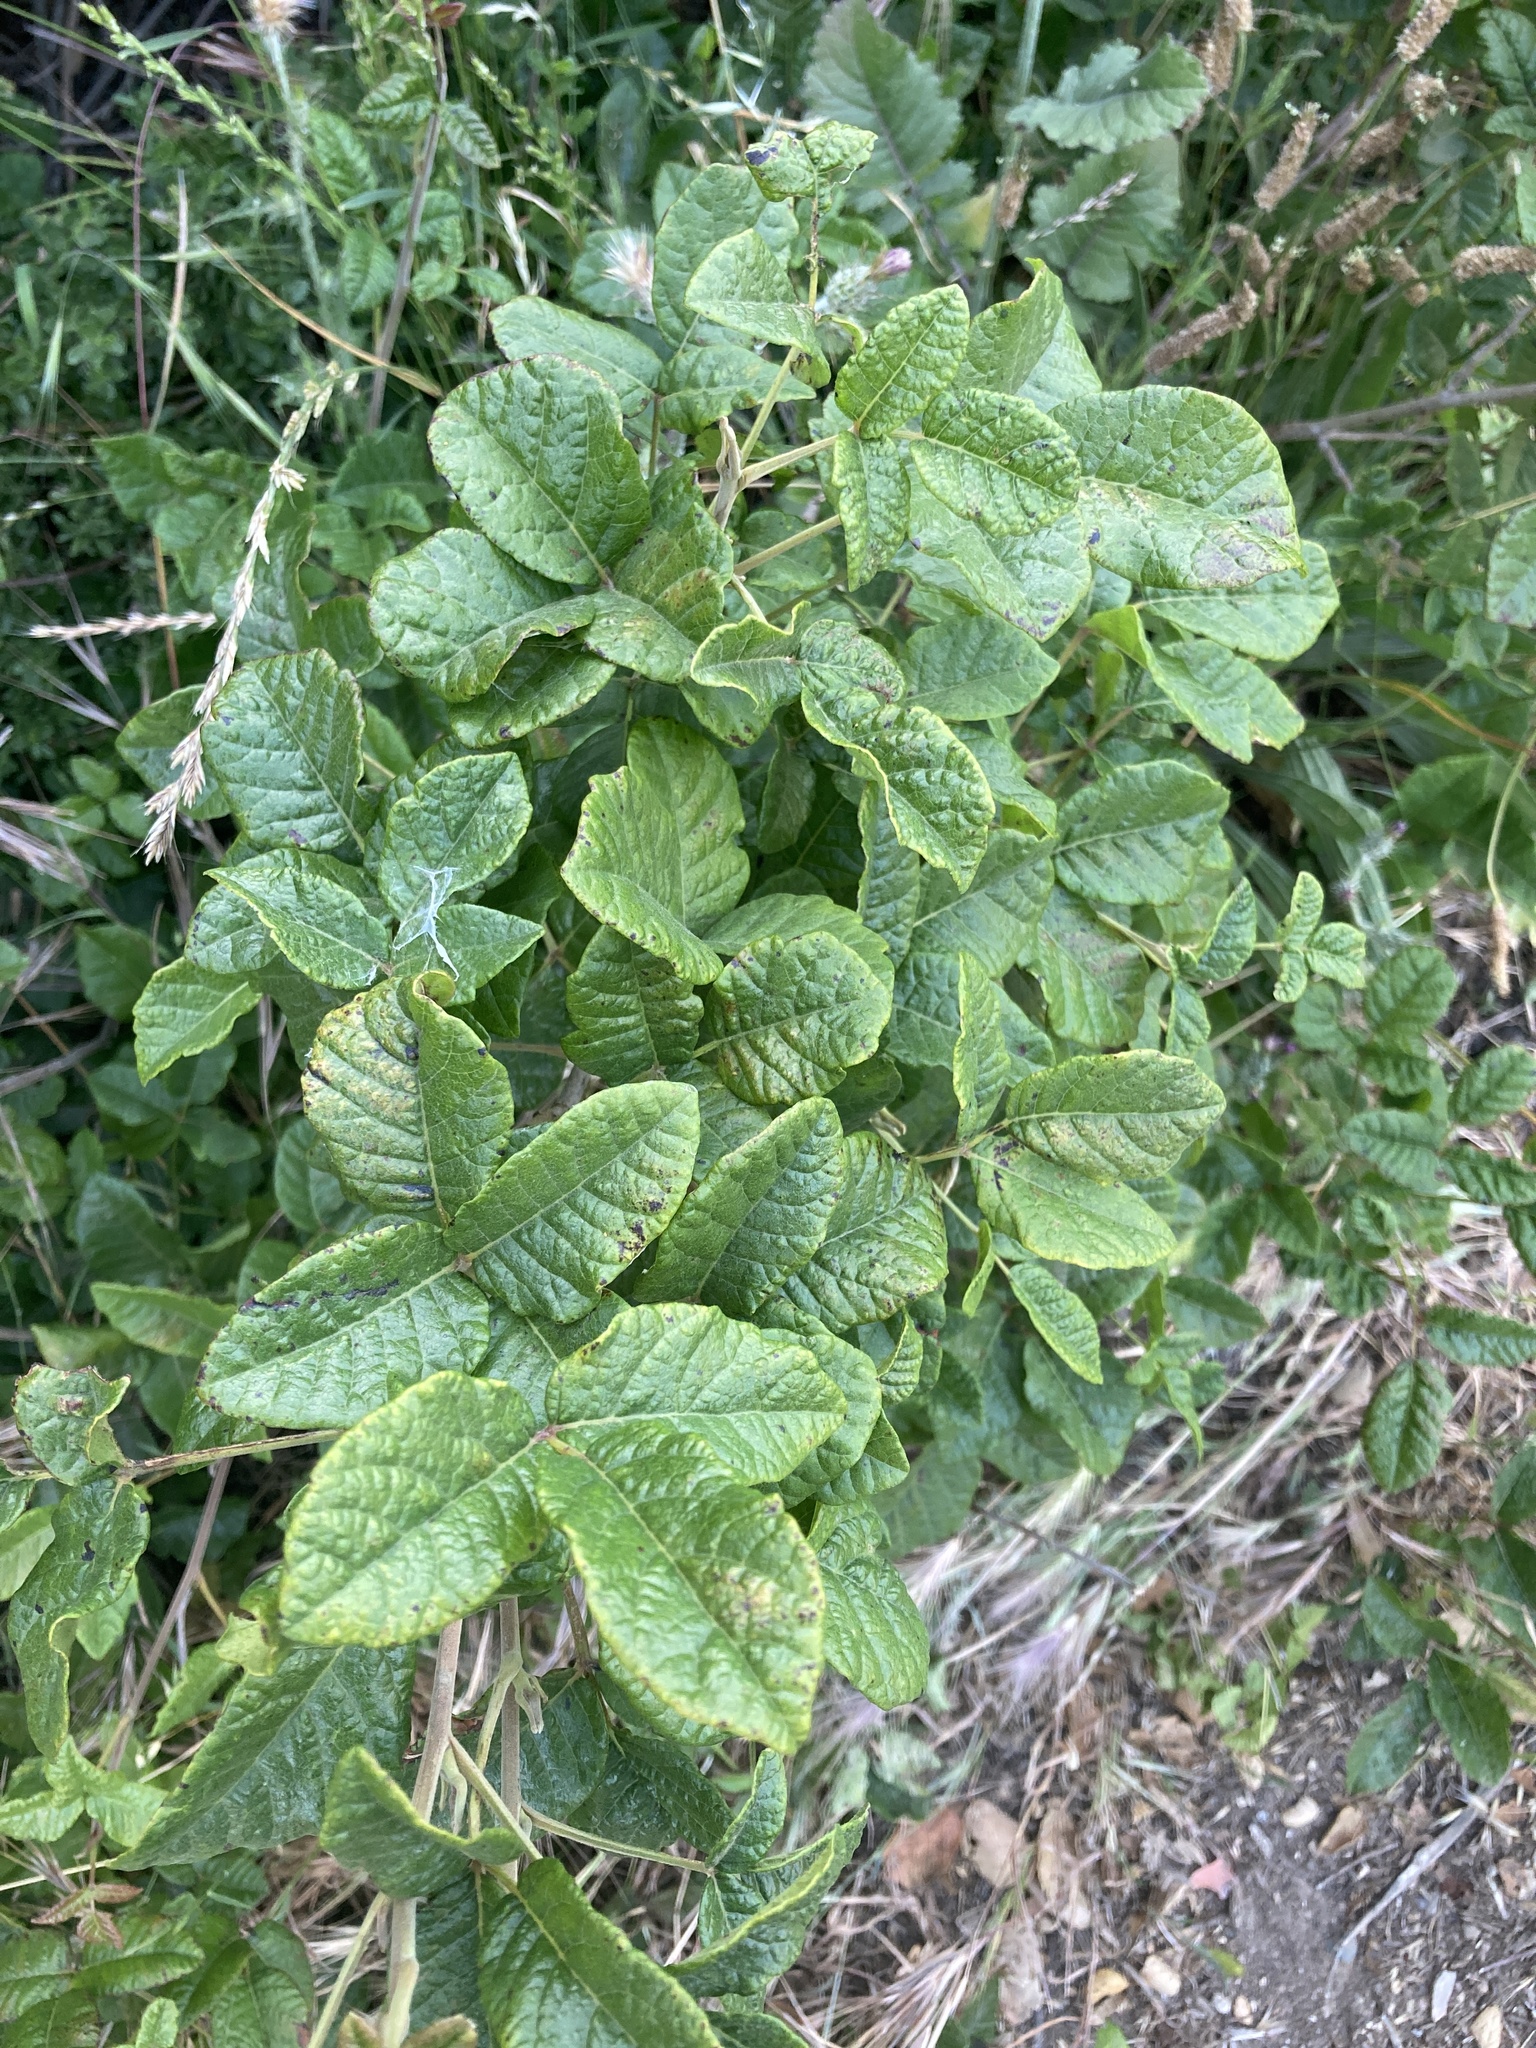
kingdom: Plantae
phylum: Tracheophyta
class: Magnoliopsida
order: Sapindales
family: Anacardiaceae
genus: Toxicodendron
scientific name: Toxicodendron diversilobum
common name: Pacific poison-oak
